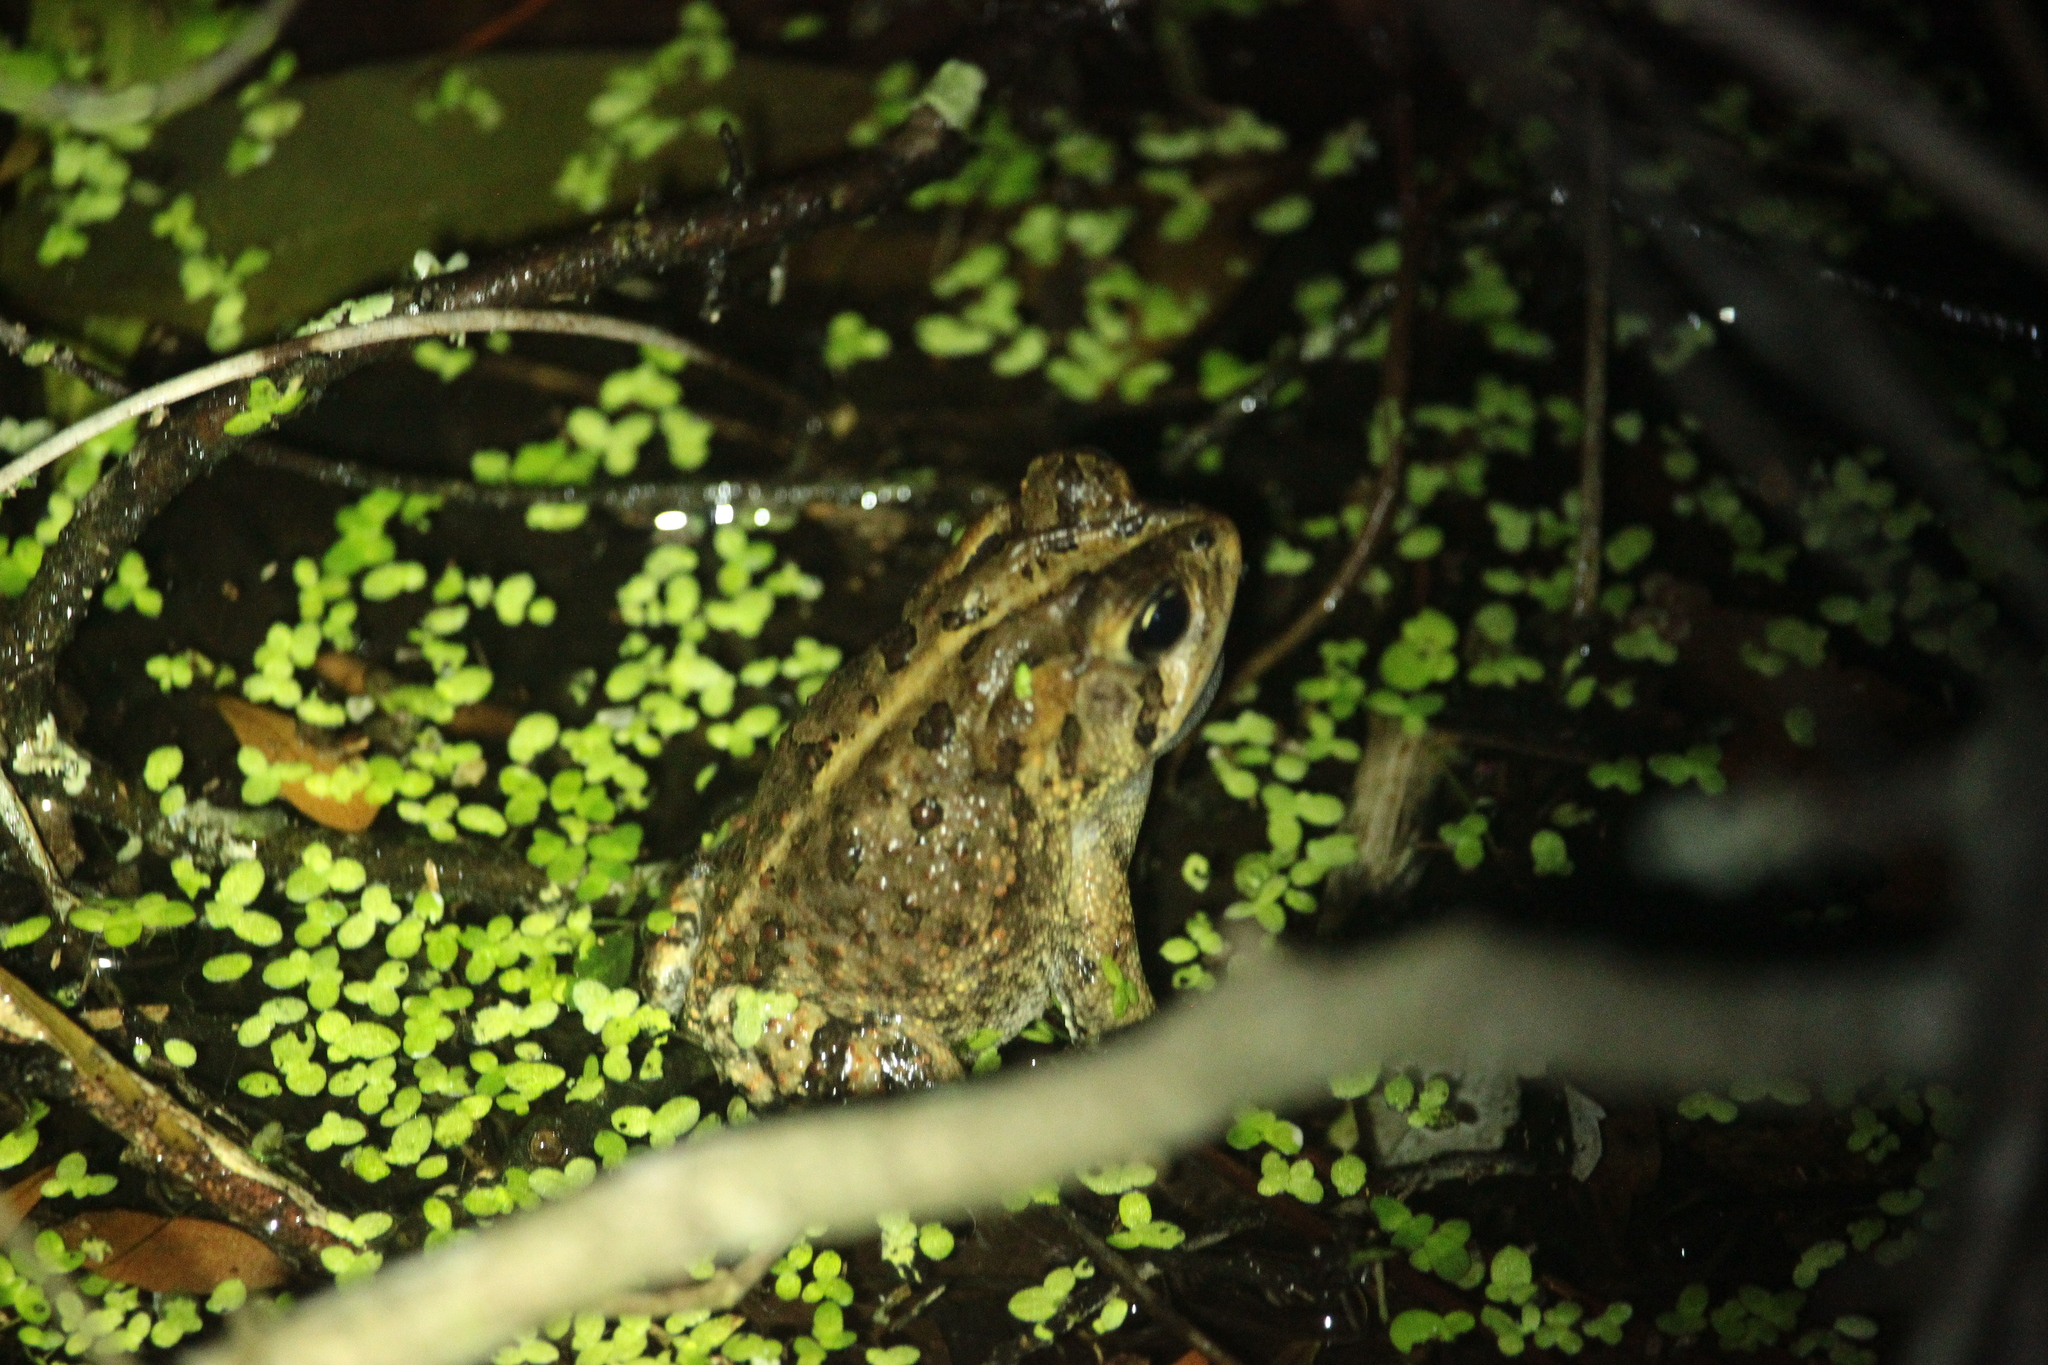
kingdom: Animalia
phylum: Chordata
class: Amphibia
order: Anura
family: Bufonidae
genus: Anaxyrus
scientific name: Anaxyrus terrestris
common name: Southern toad
